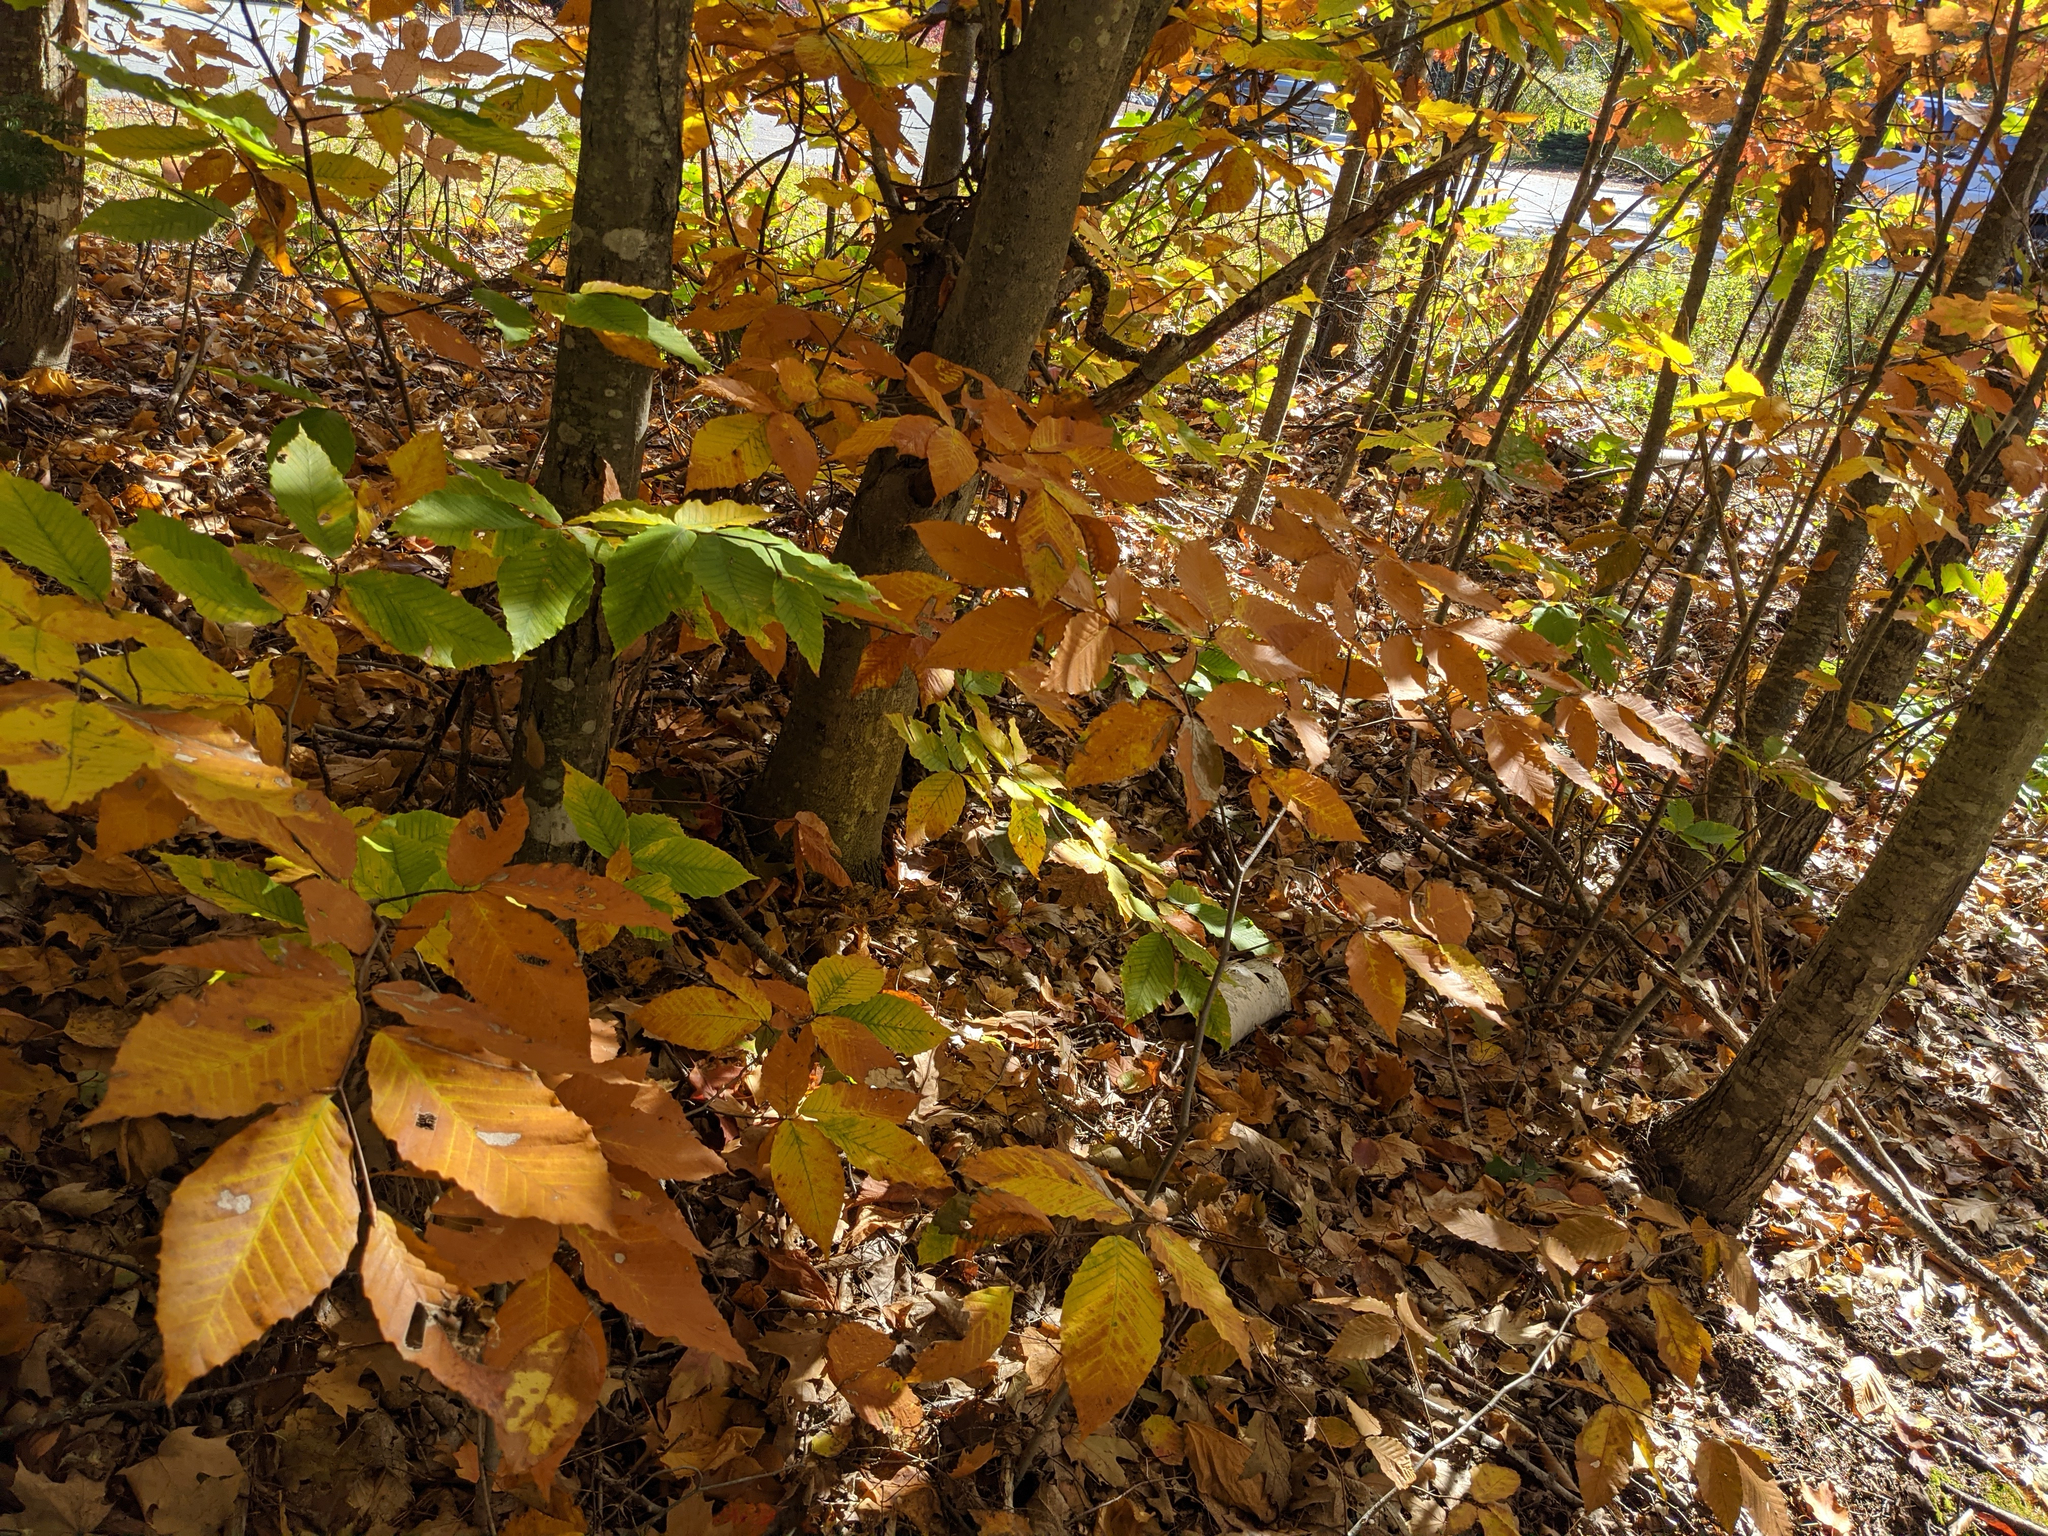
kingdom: Plantae
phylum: Tracheophyta
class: Magnoliopsida
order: Fagales
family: Fagaceae
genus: Fagus
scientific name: Fagus grandifolia
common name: American beech
